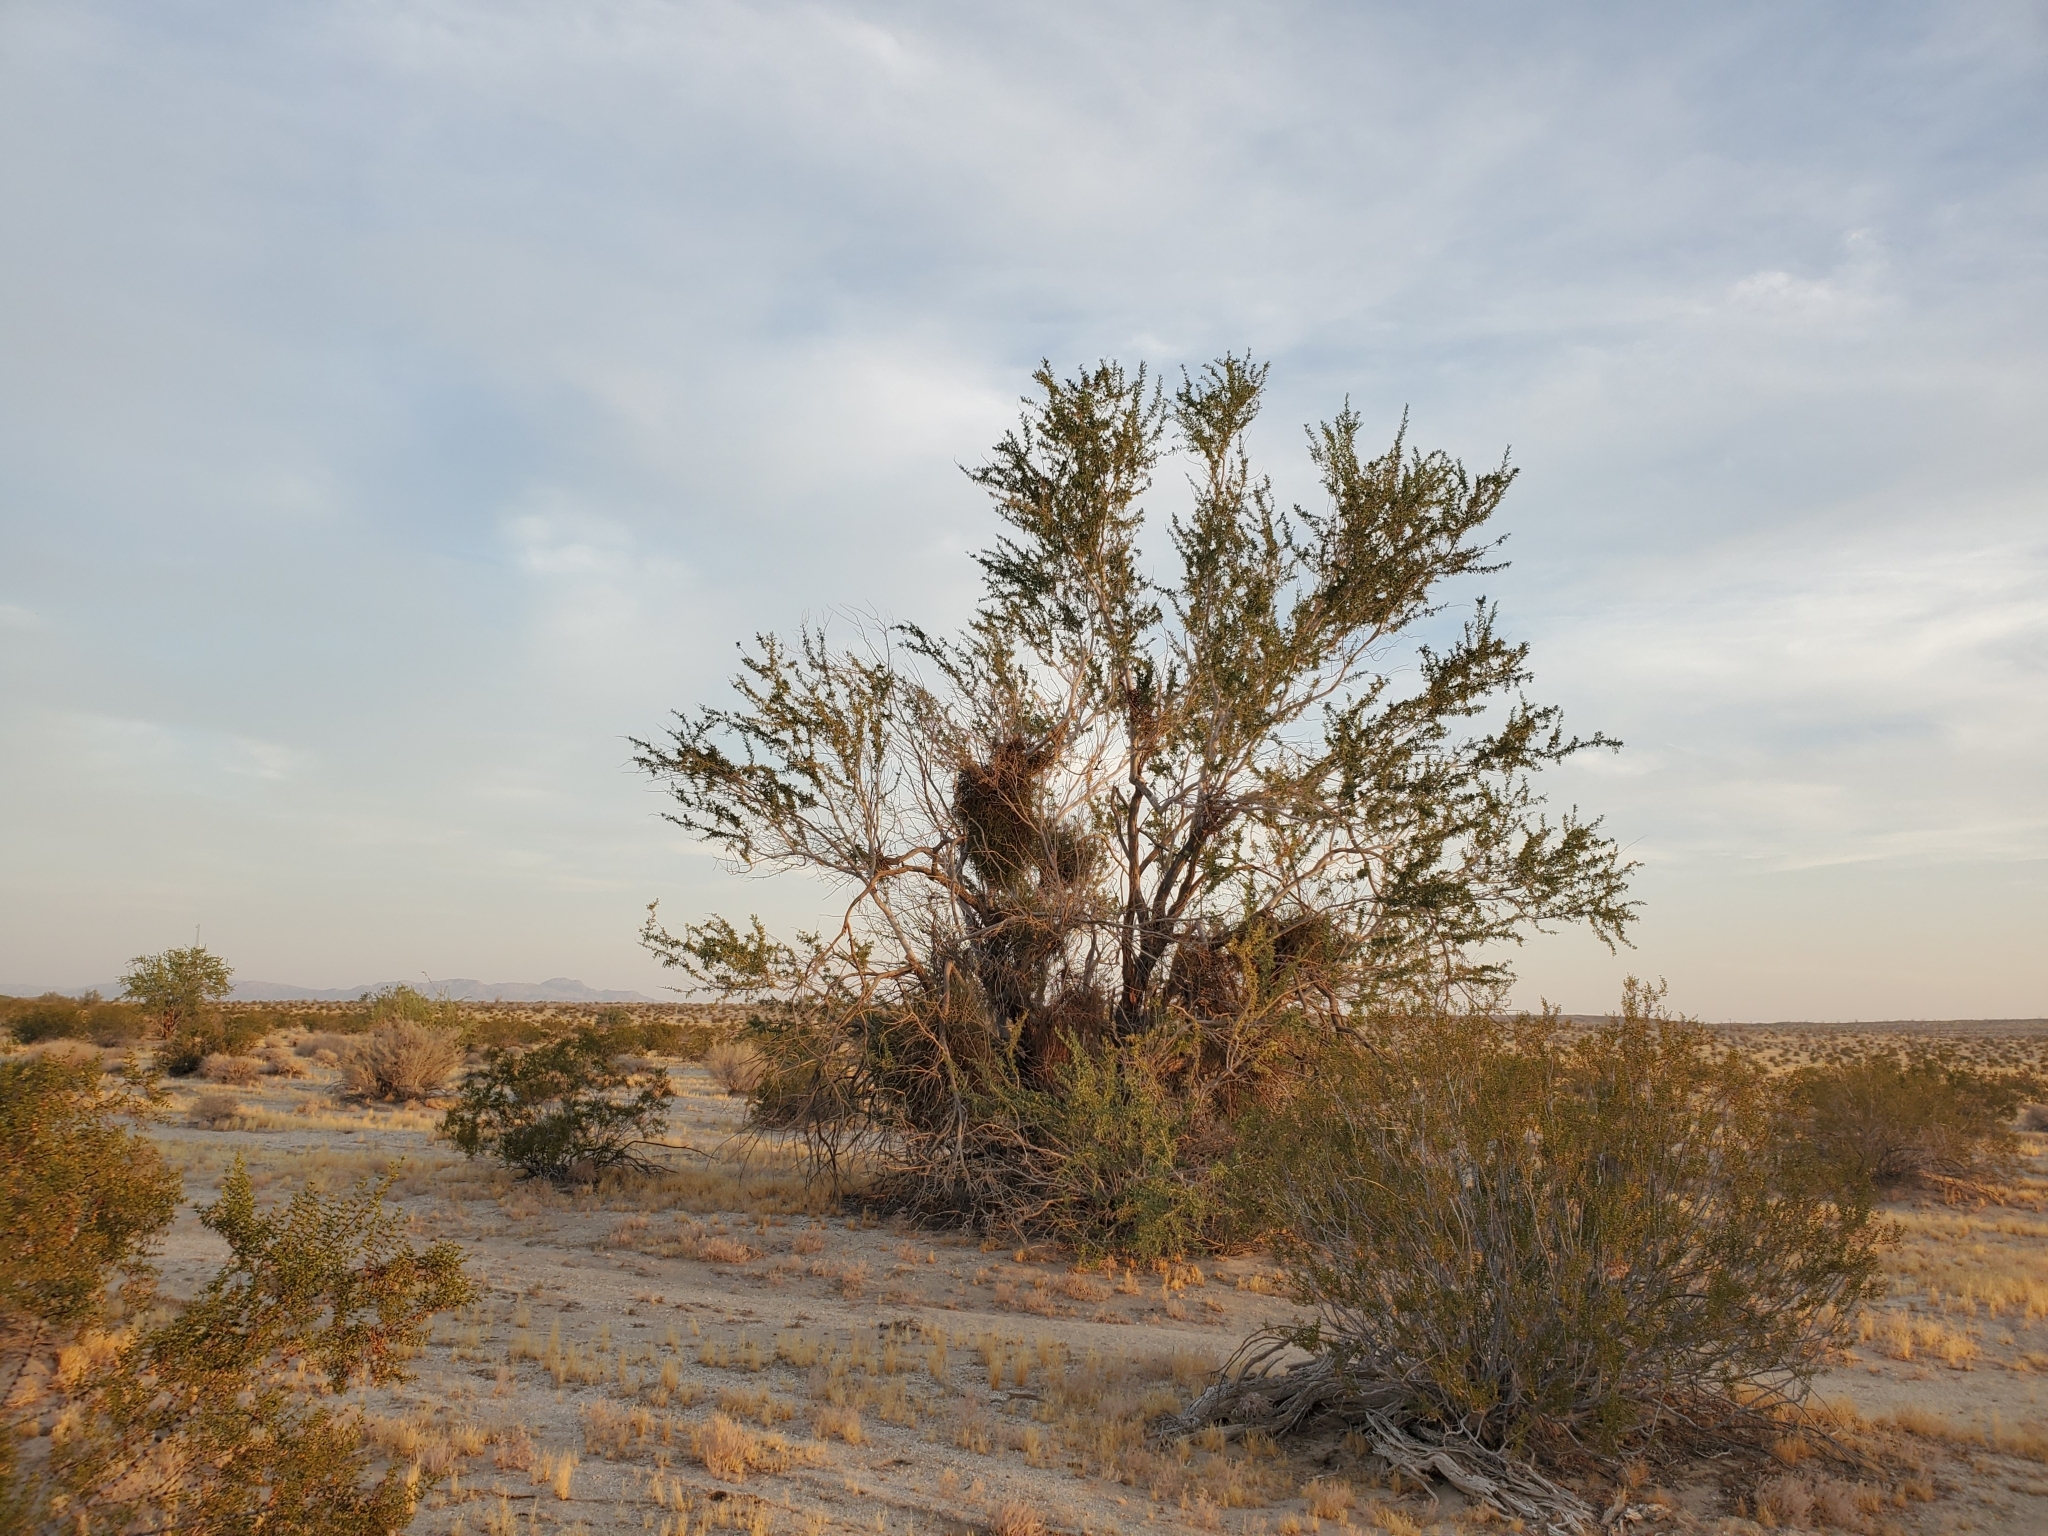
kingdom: Plantae
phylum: Tracheophyta
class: Magnoliopsida
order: Fabales
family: Fabaceae
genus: Olneya
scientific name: Olneya tesota
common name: Desert ironwood
